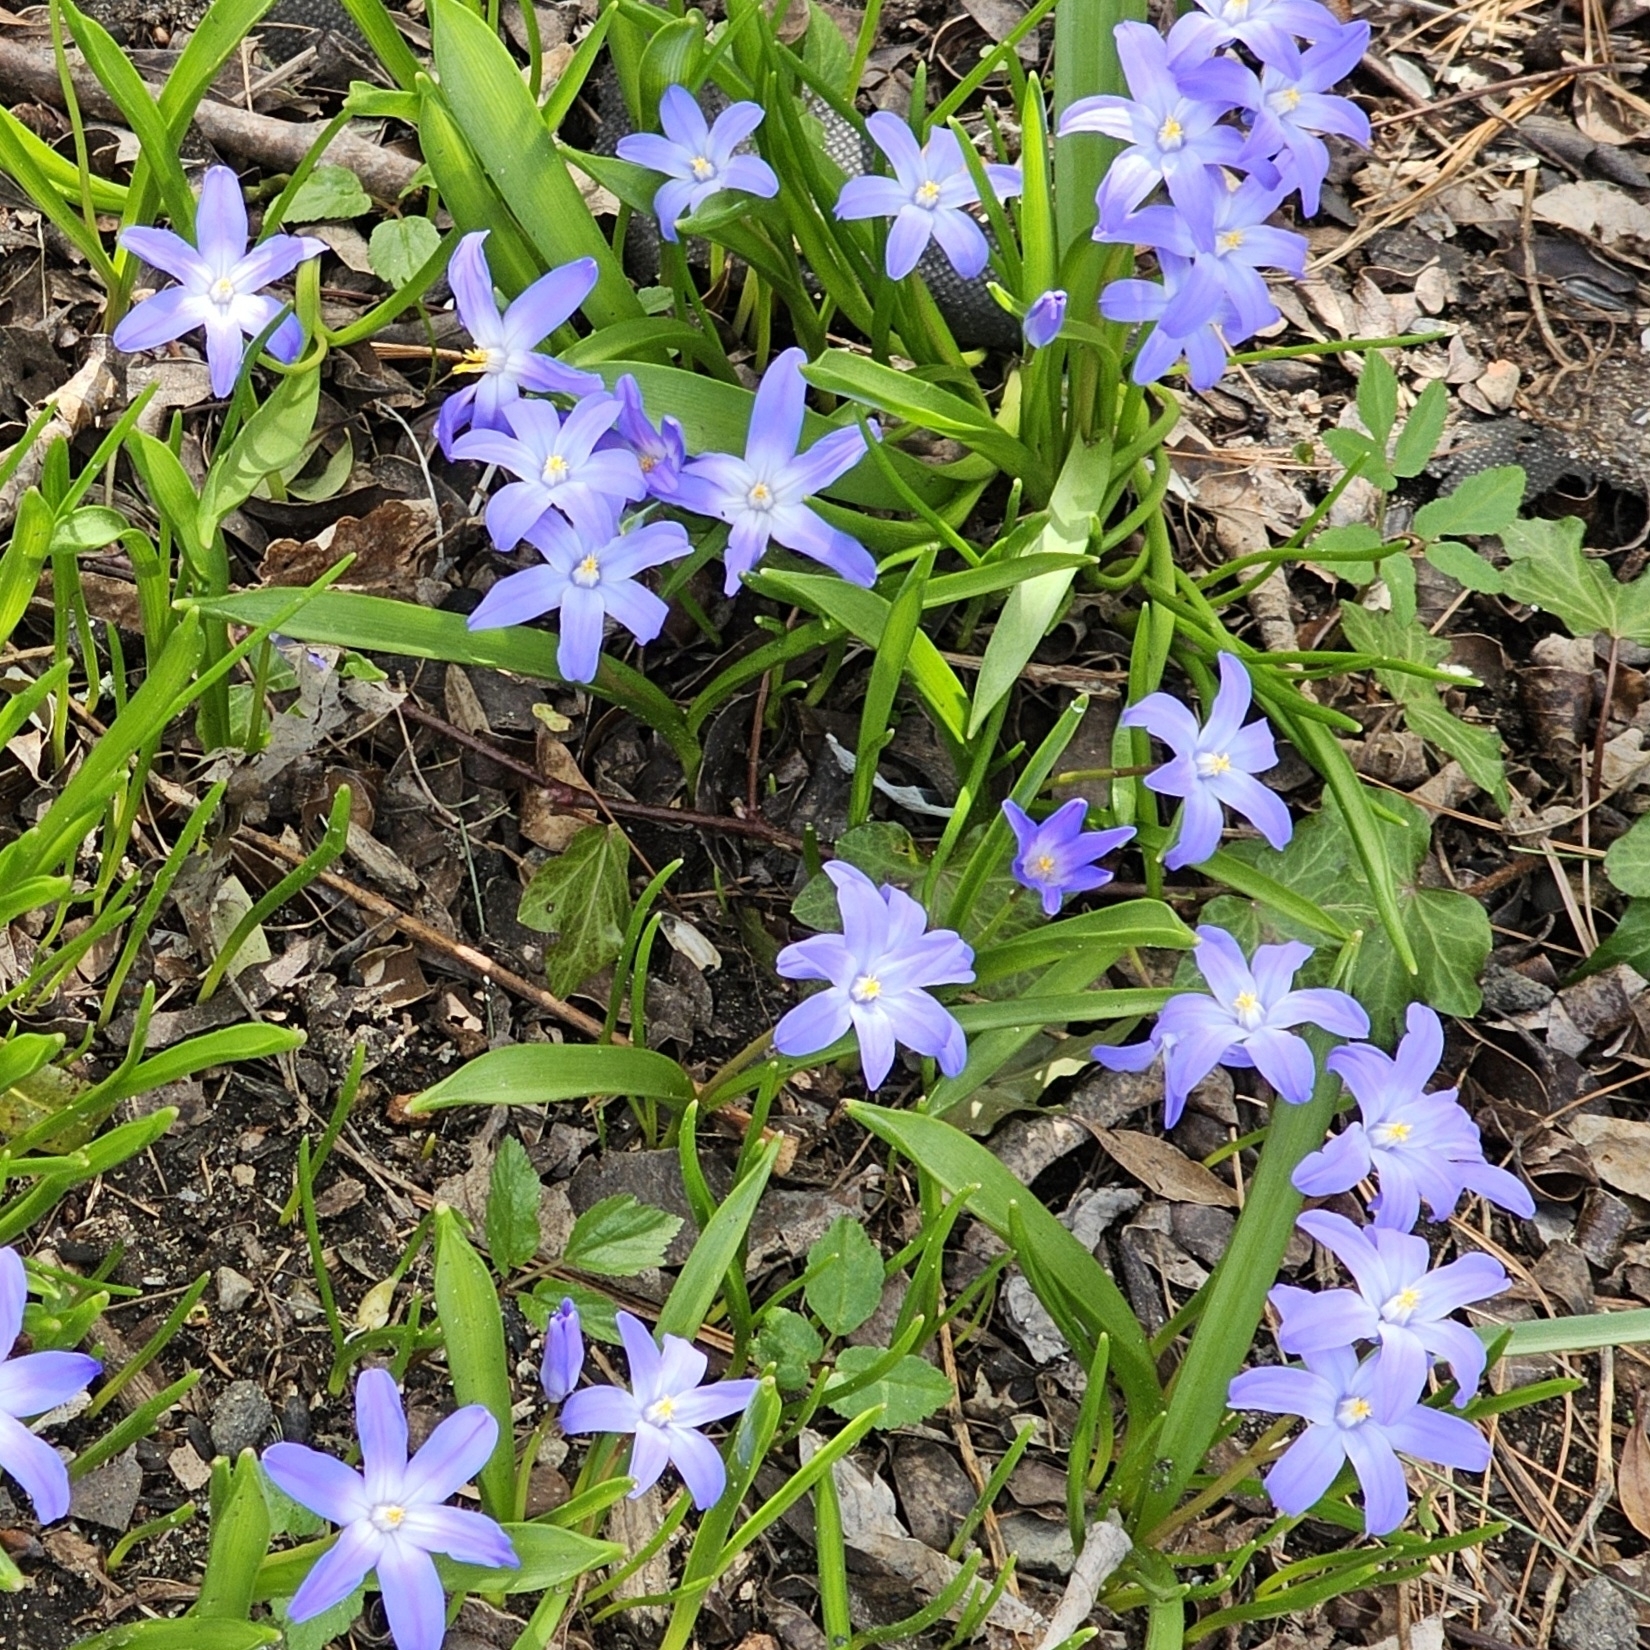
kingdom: Plantae
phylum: Tracheophyta
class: Liliopsida
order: Asparagales
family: Asparagaceae
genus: Scilla
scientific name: Scilla luciliae
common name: Boissier's glory-of-the-snow
